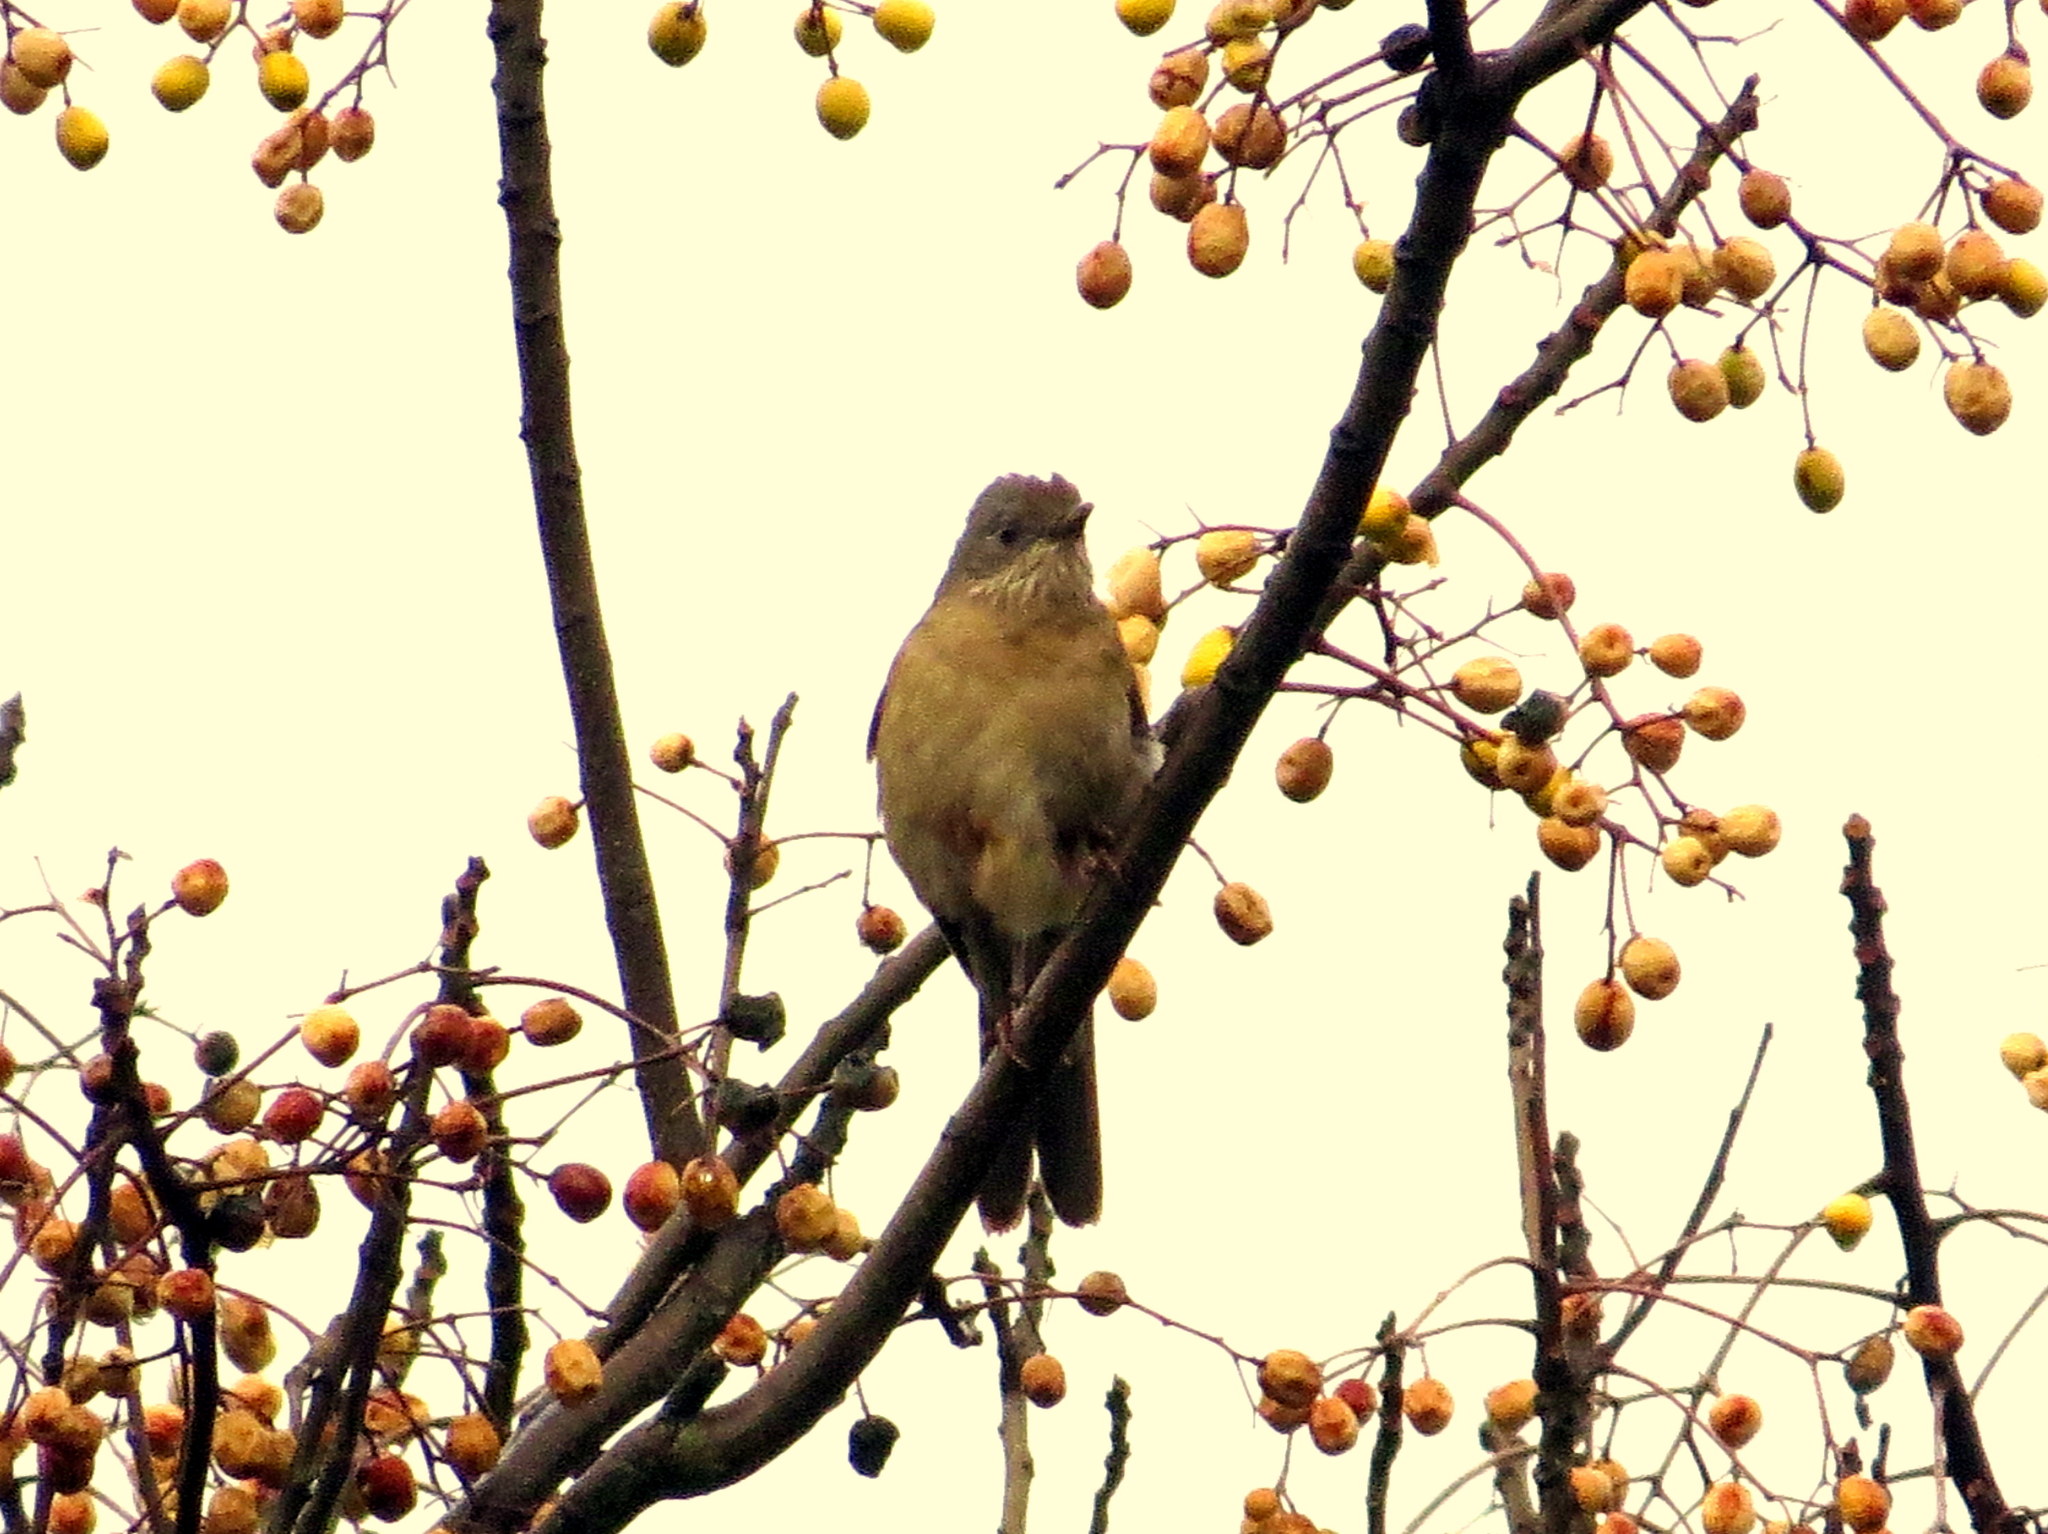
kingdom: Animalia
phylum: Chordata
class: Aves
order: Passeriformes
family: Turdidae
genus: Turdus
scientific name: Turdus leucomelas
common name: Pale-breasted thrush
